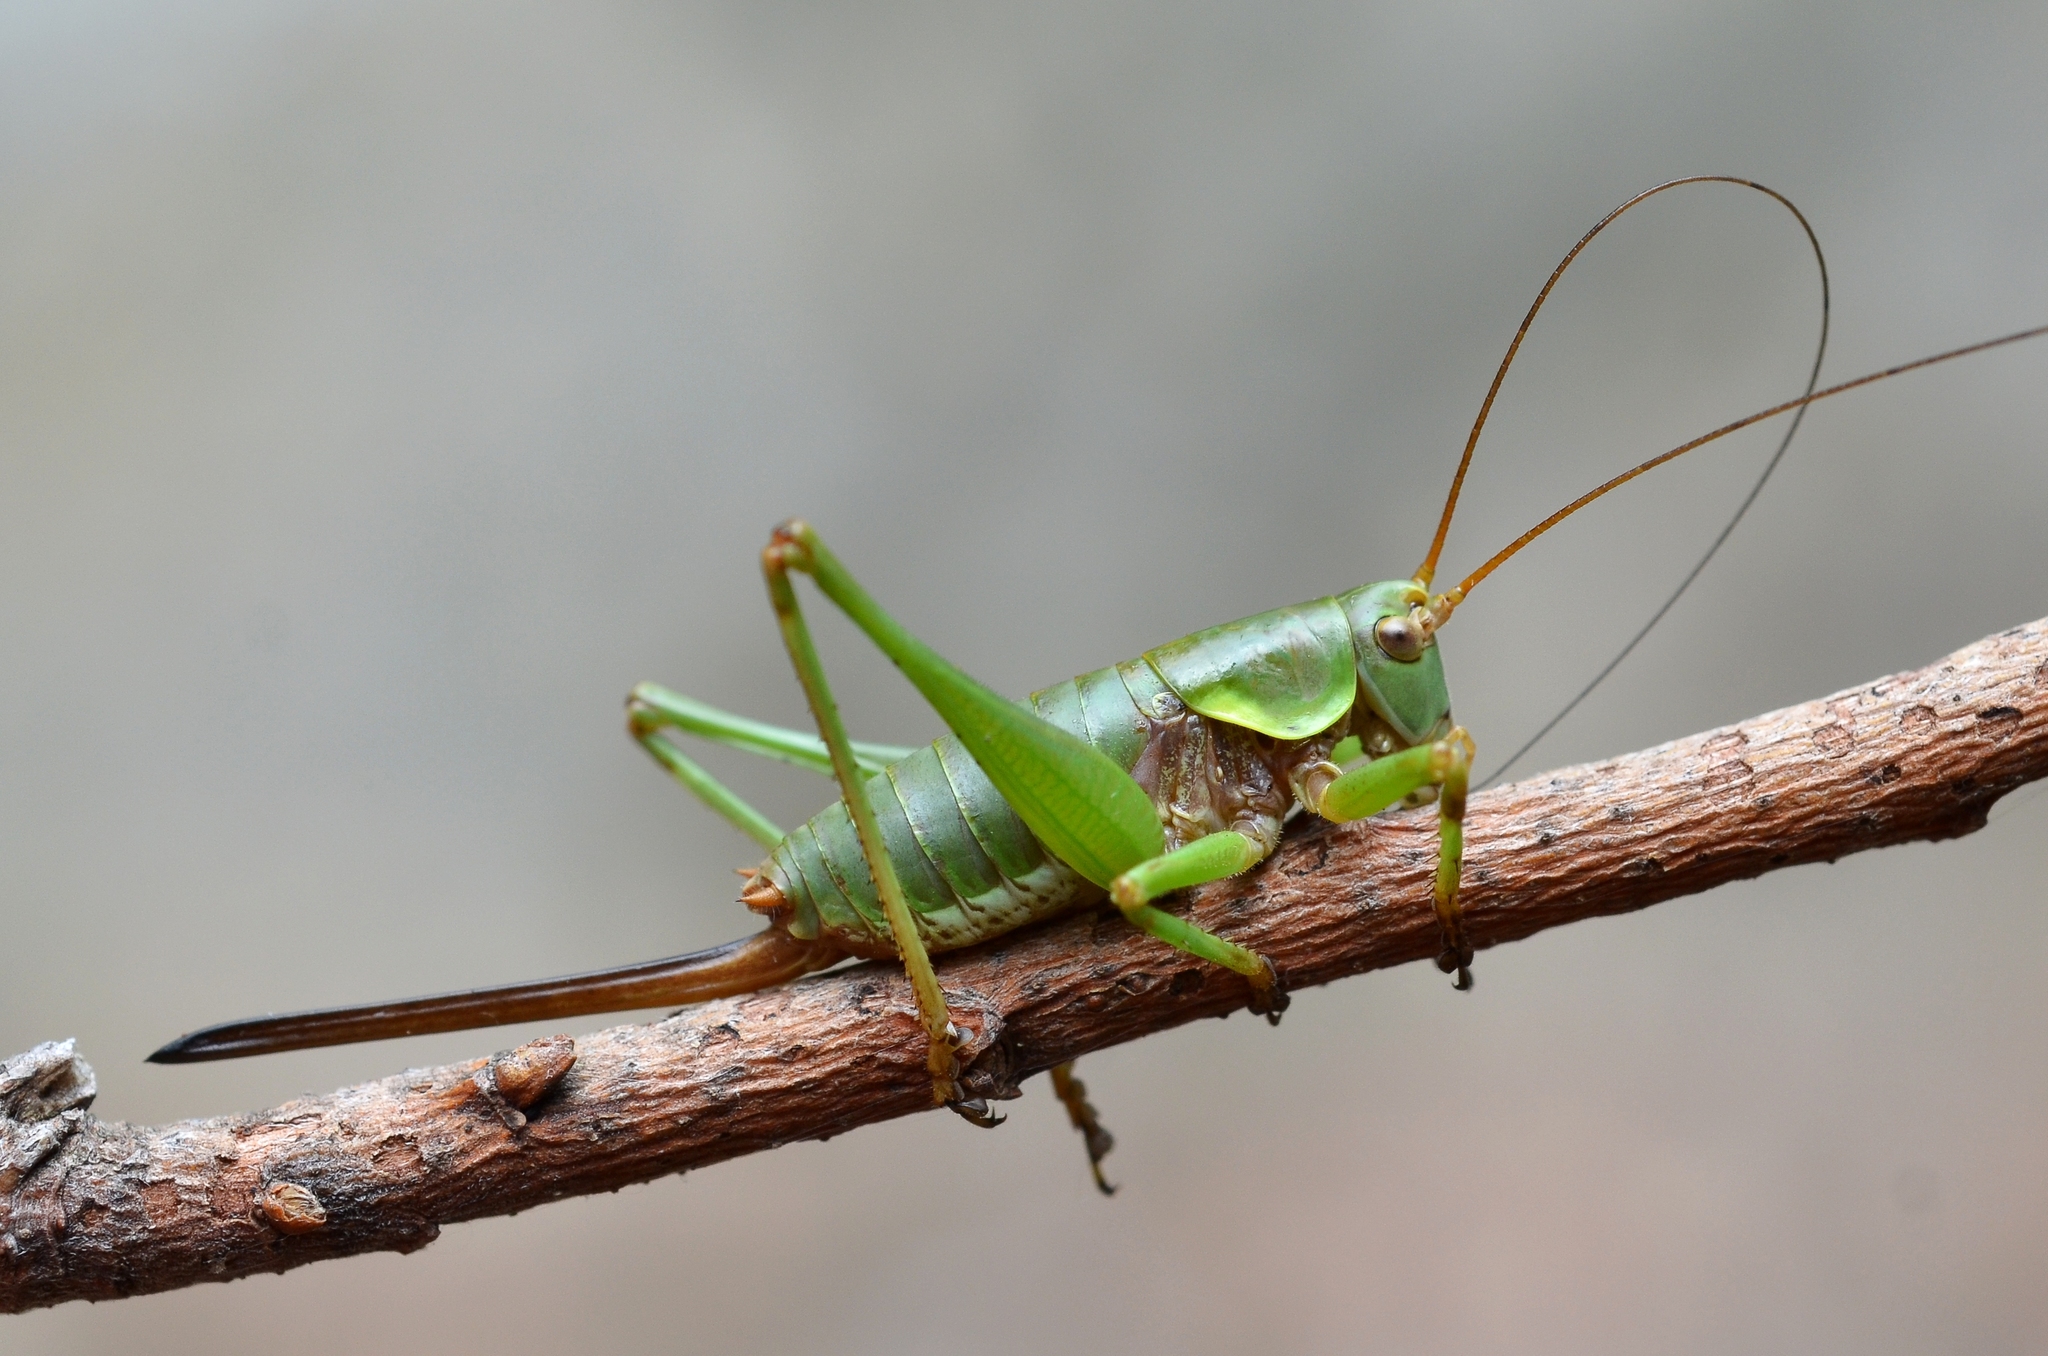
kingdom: Animalia
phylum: Arthropoda
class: Insecta
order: Orthoptera
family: Tettigoniidae
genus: Antaxius
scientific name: Antaxius sorrezensis
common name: French mountain bush-cricket
